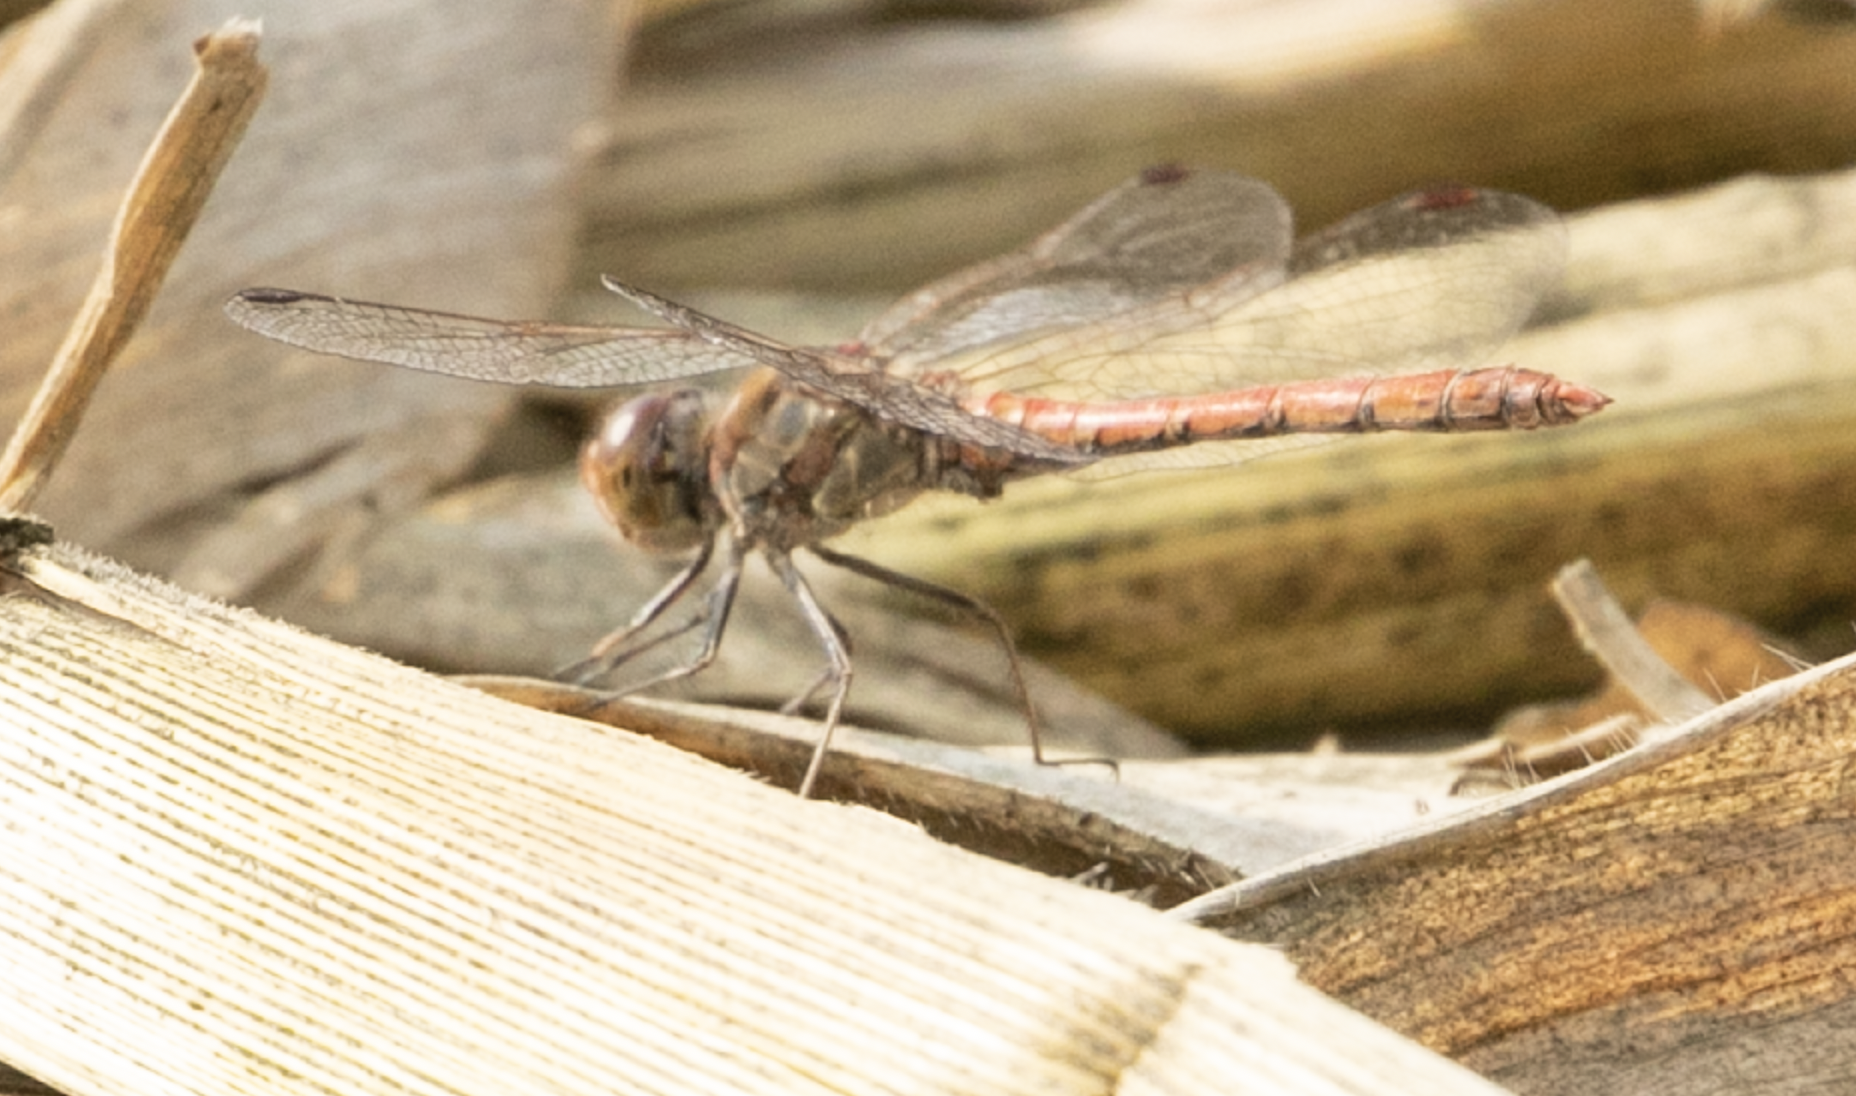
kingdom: Animalia
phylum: Arthropoda
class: Insecta
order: Odonata
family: Libellulidae
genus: Sympetrum
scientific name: Sympetrum striolatum
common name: Common darter
